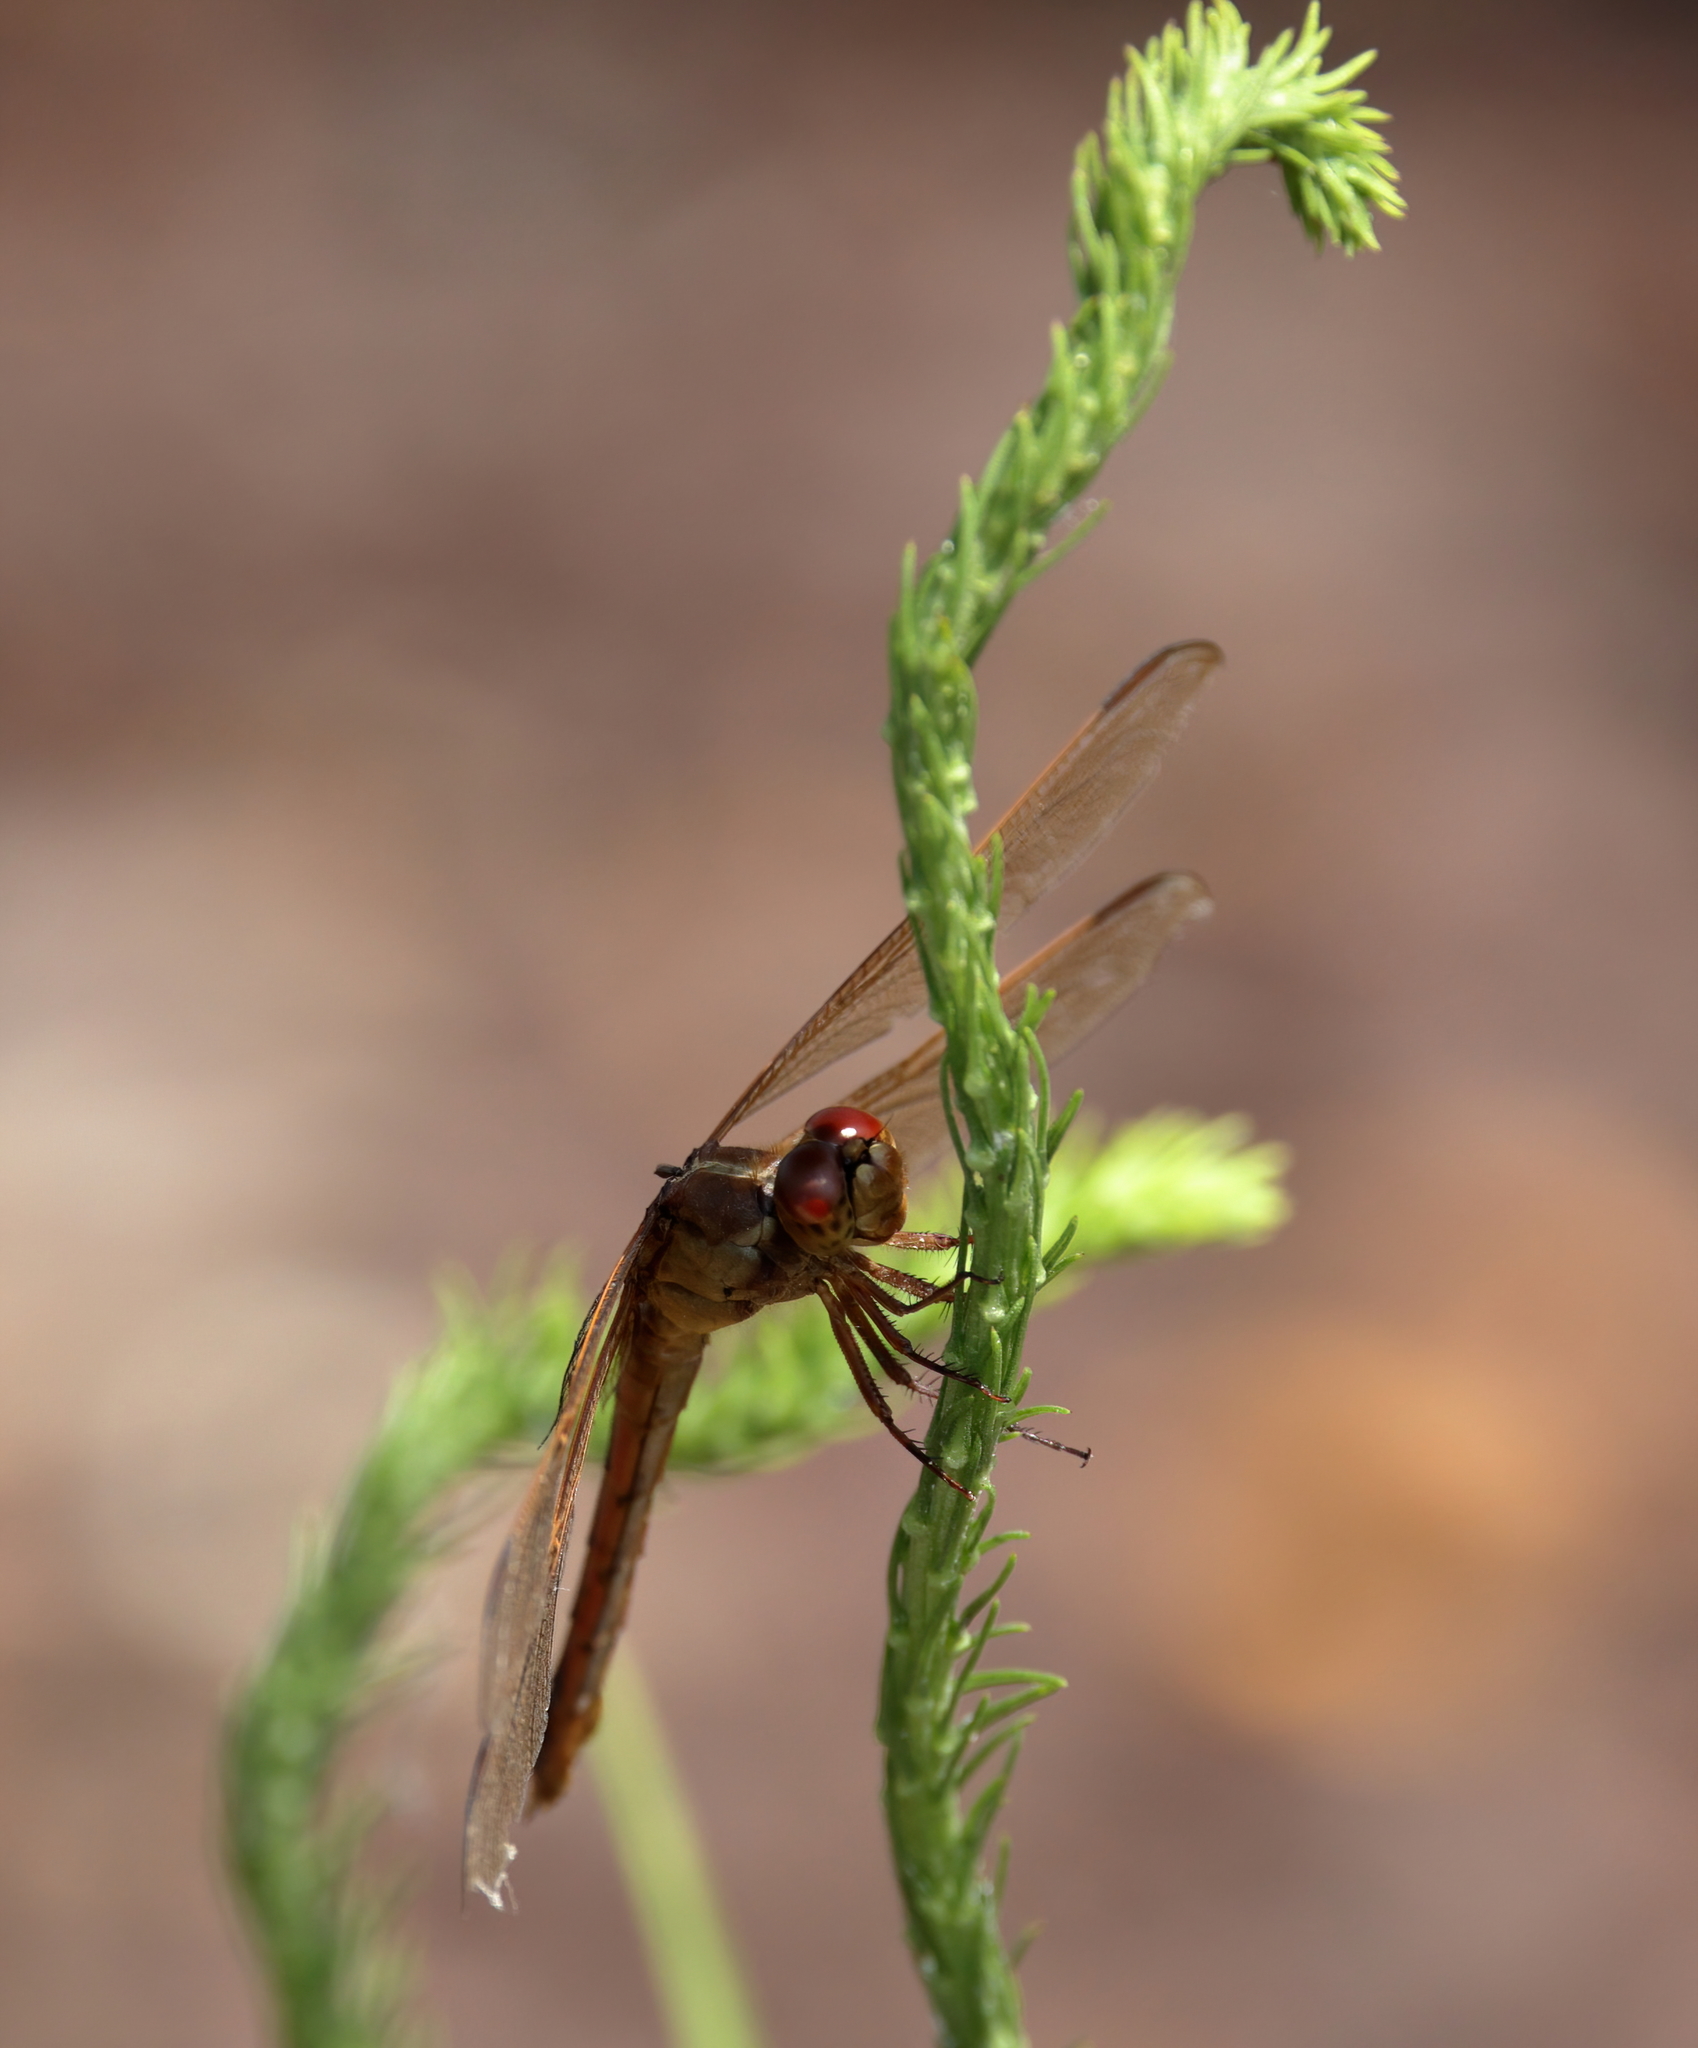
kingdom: Animalia
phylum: Arthropoda
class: Insecta
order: Odonata
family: Libellulidae
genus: Libellula
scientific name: Libellula needhami
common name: Needham's skimmer
